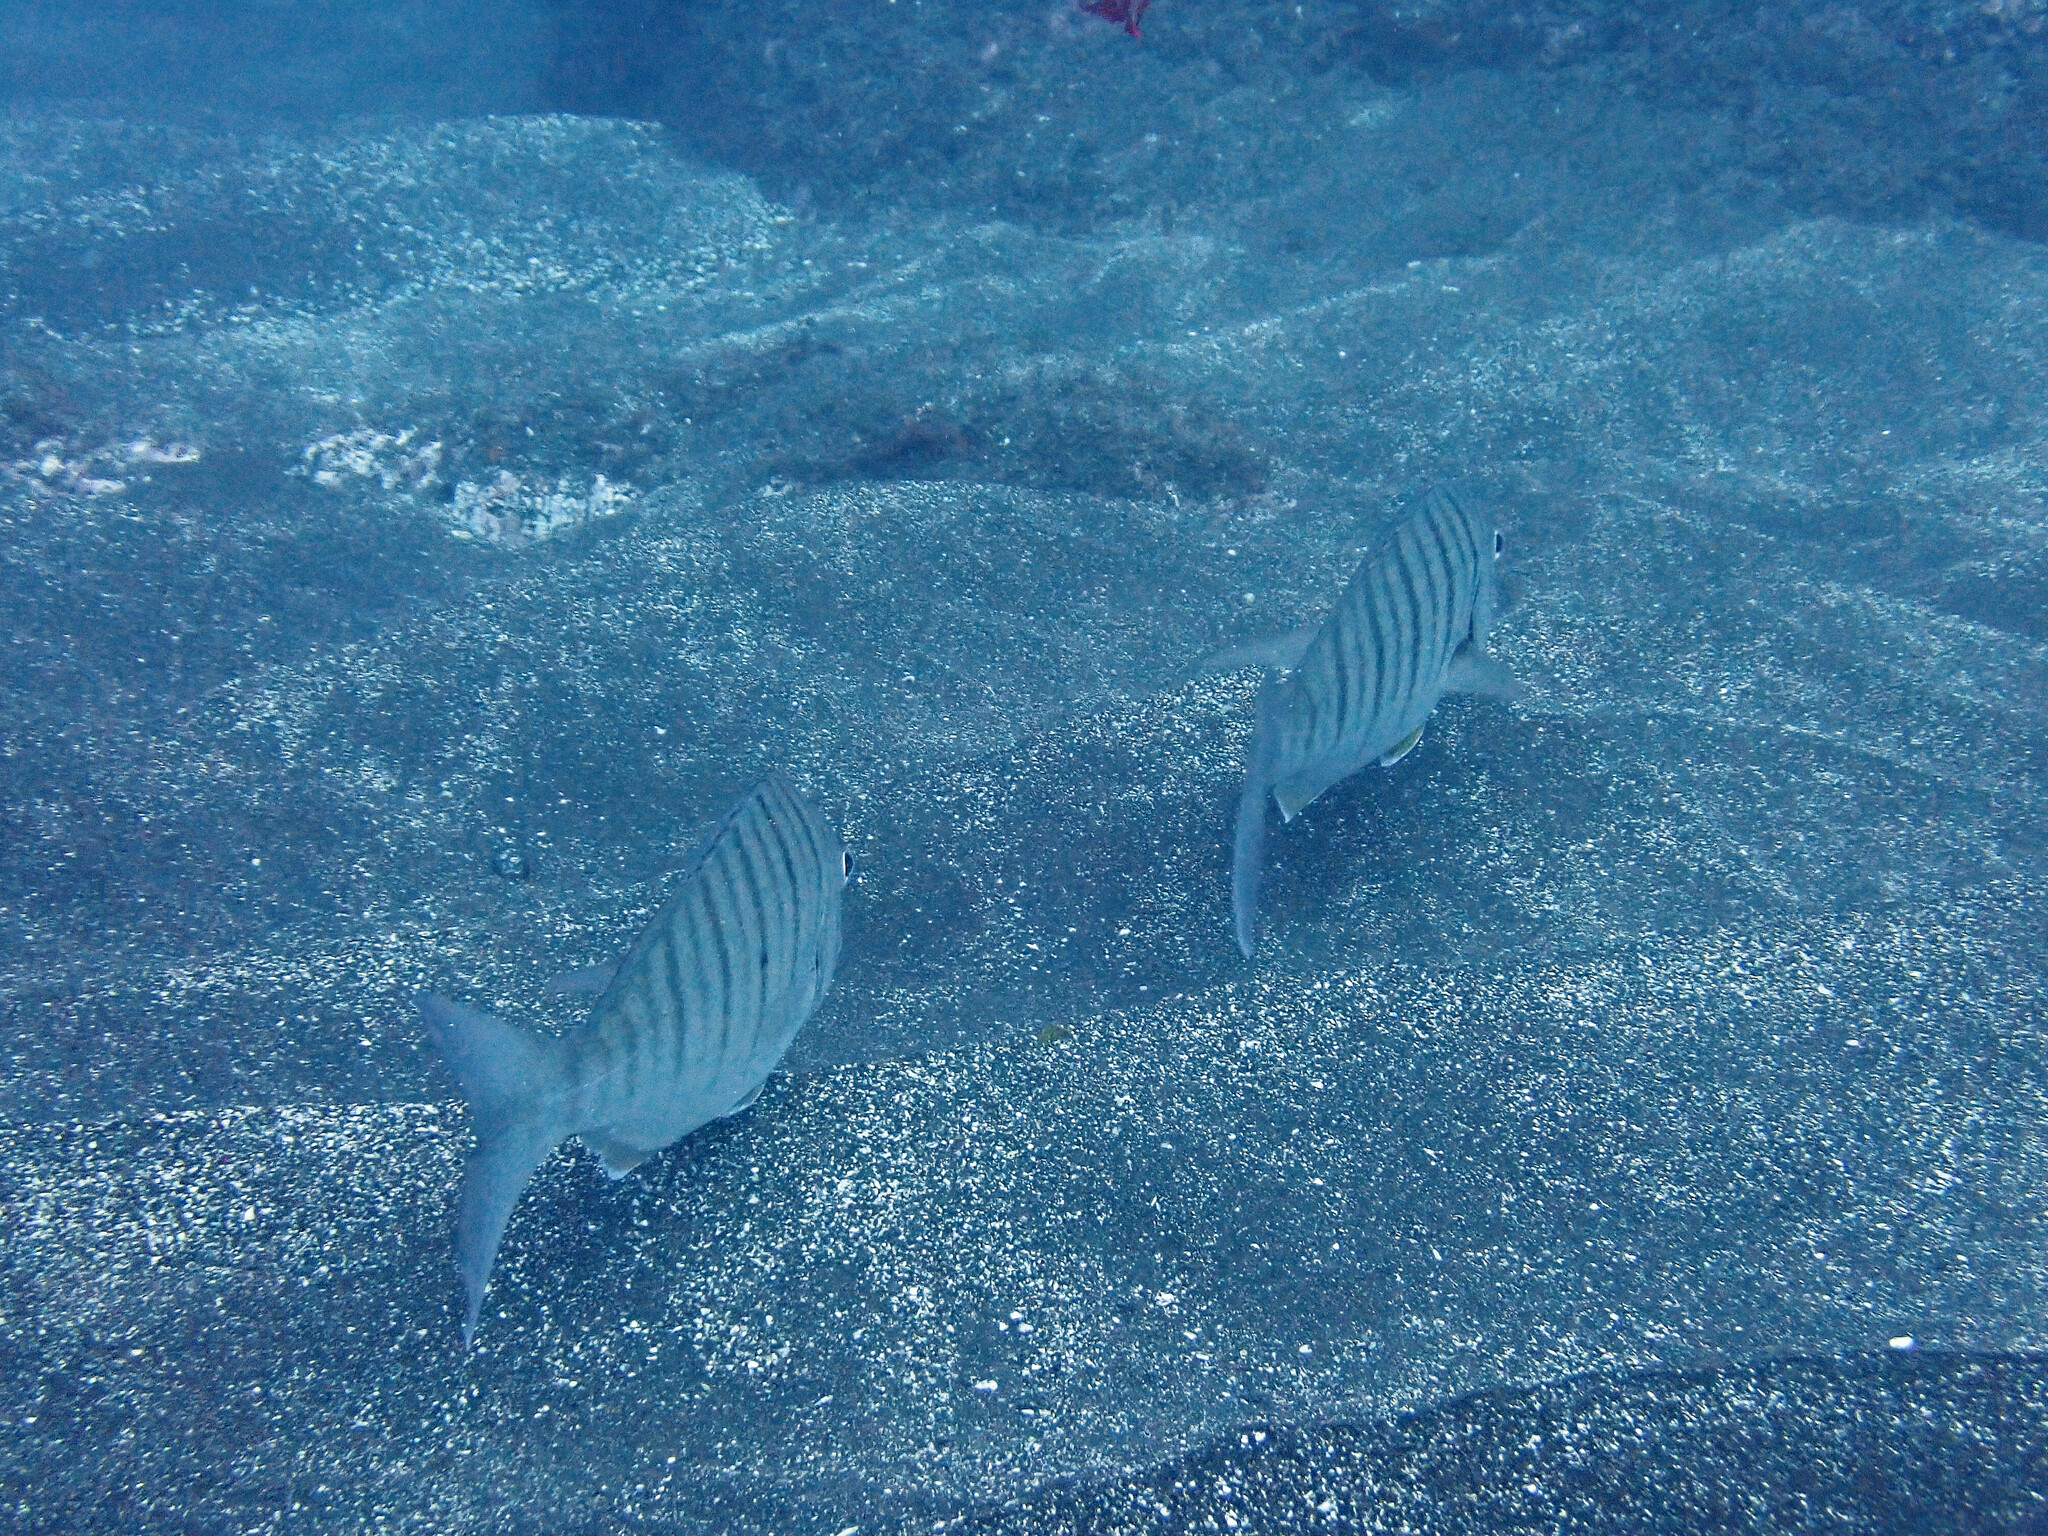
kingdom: Animalia
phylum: Chordata
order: Perciformes
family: Sparidae
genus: Lithognathus
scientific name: Lithognathus mormyrus
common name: Sand steenbras
